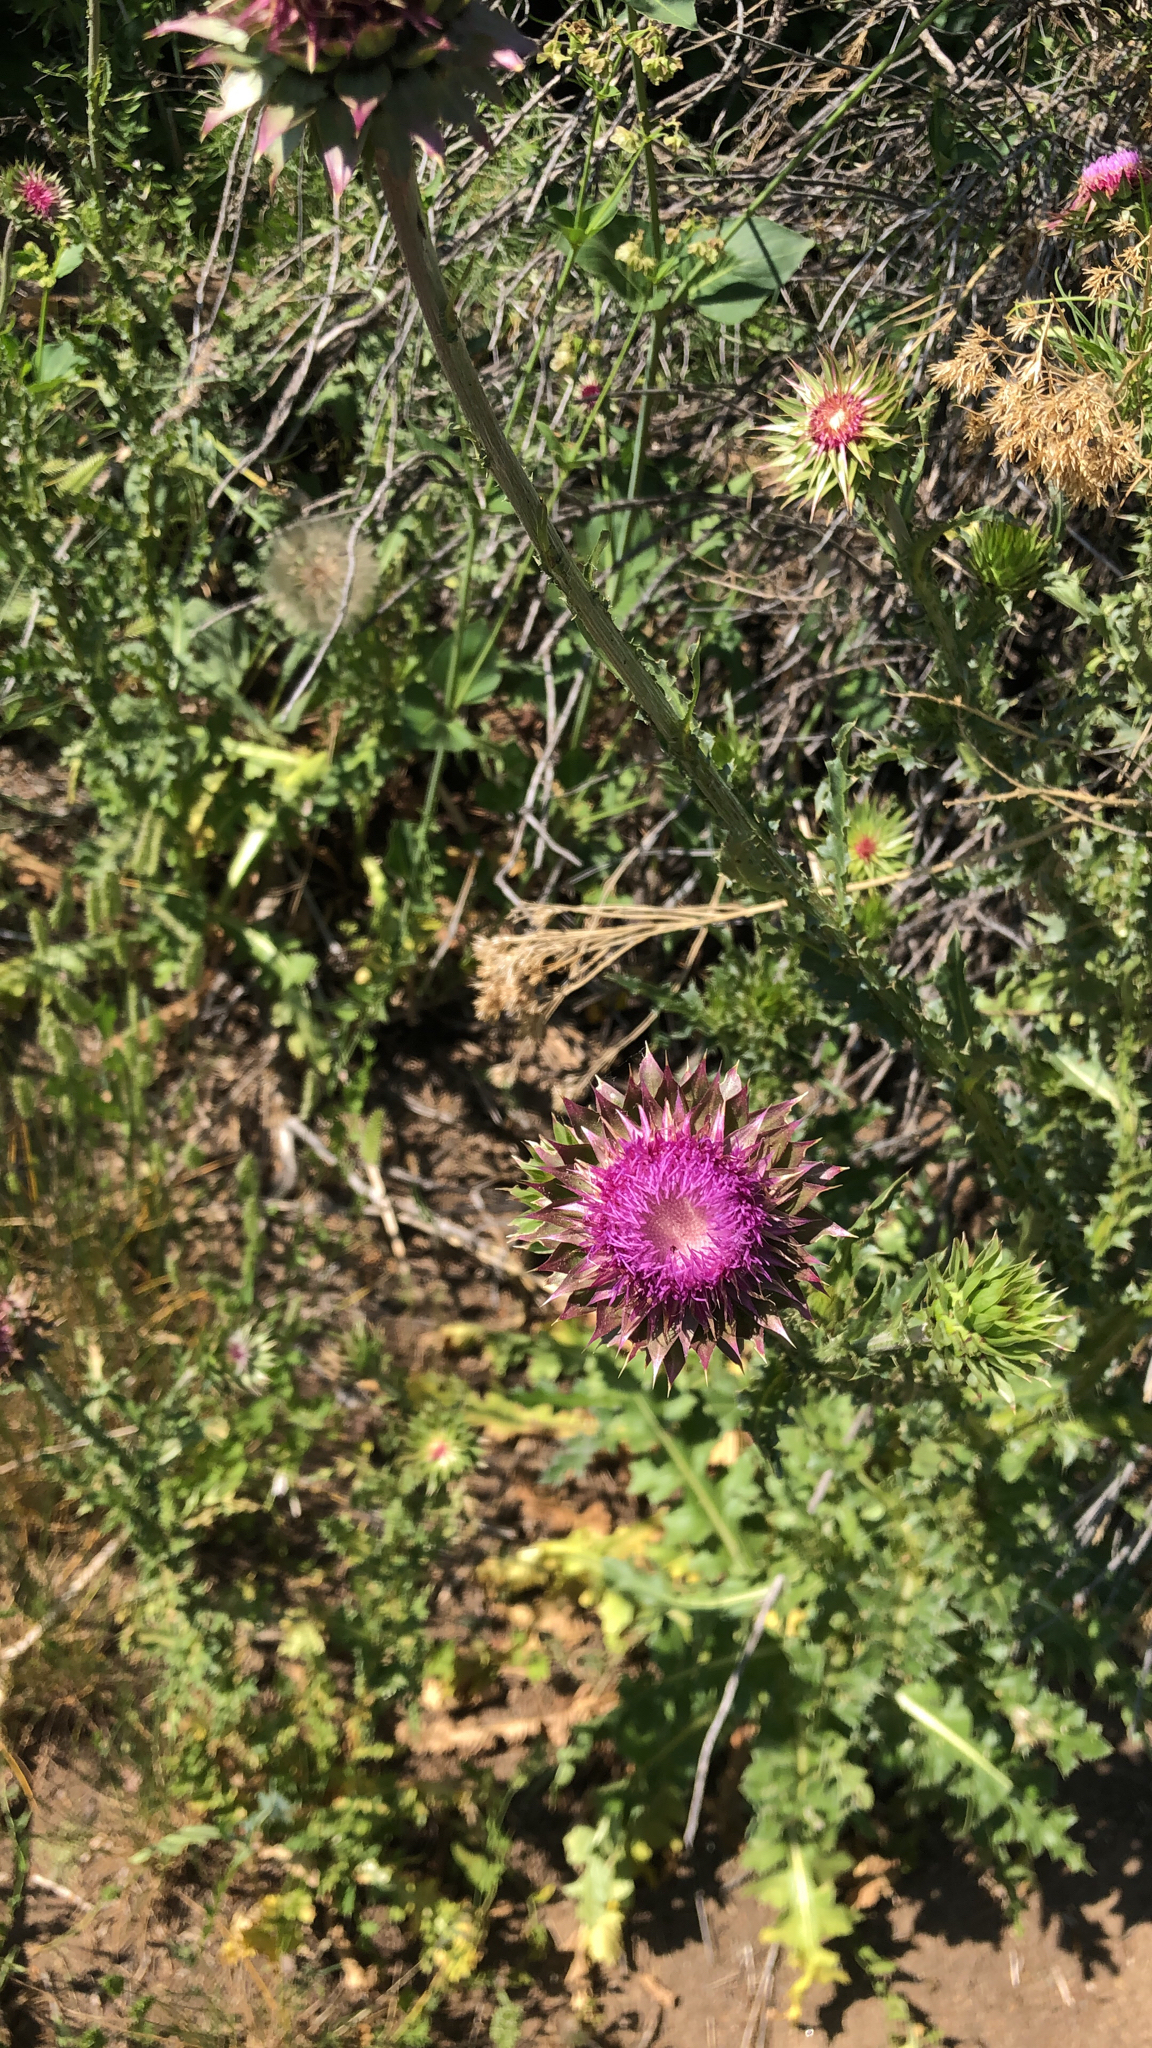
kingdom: Plantae
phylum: Tracheophyta
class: Magnoliopsida
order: Asterales
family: Asteraceae
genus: Carduus
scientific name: Carduus nutans
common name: Musk thistle
